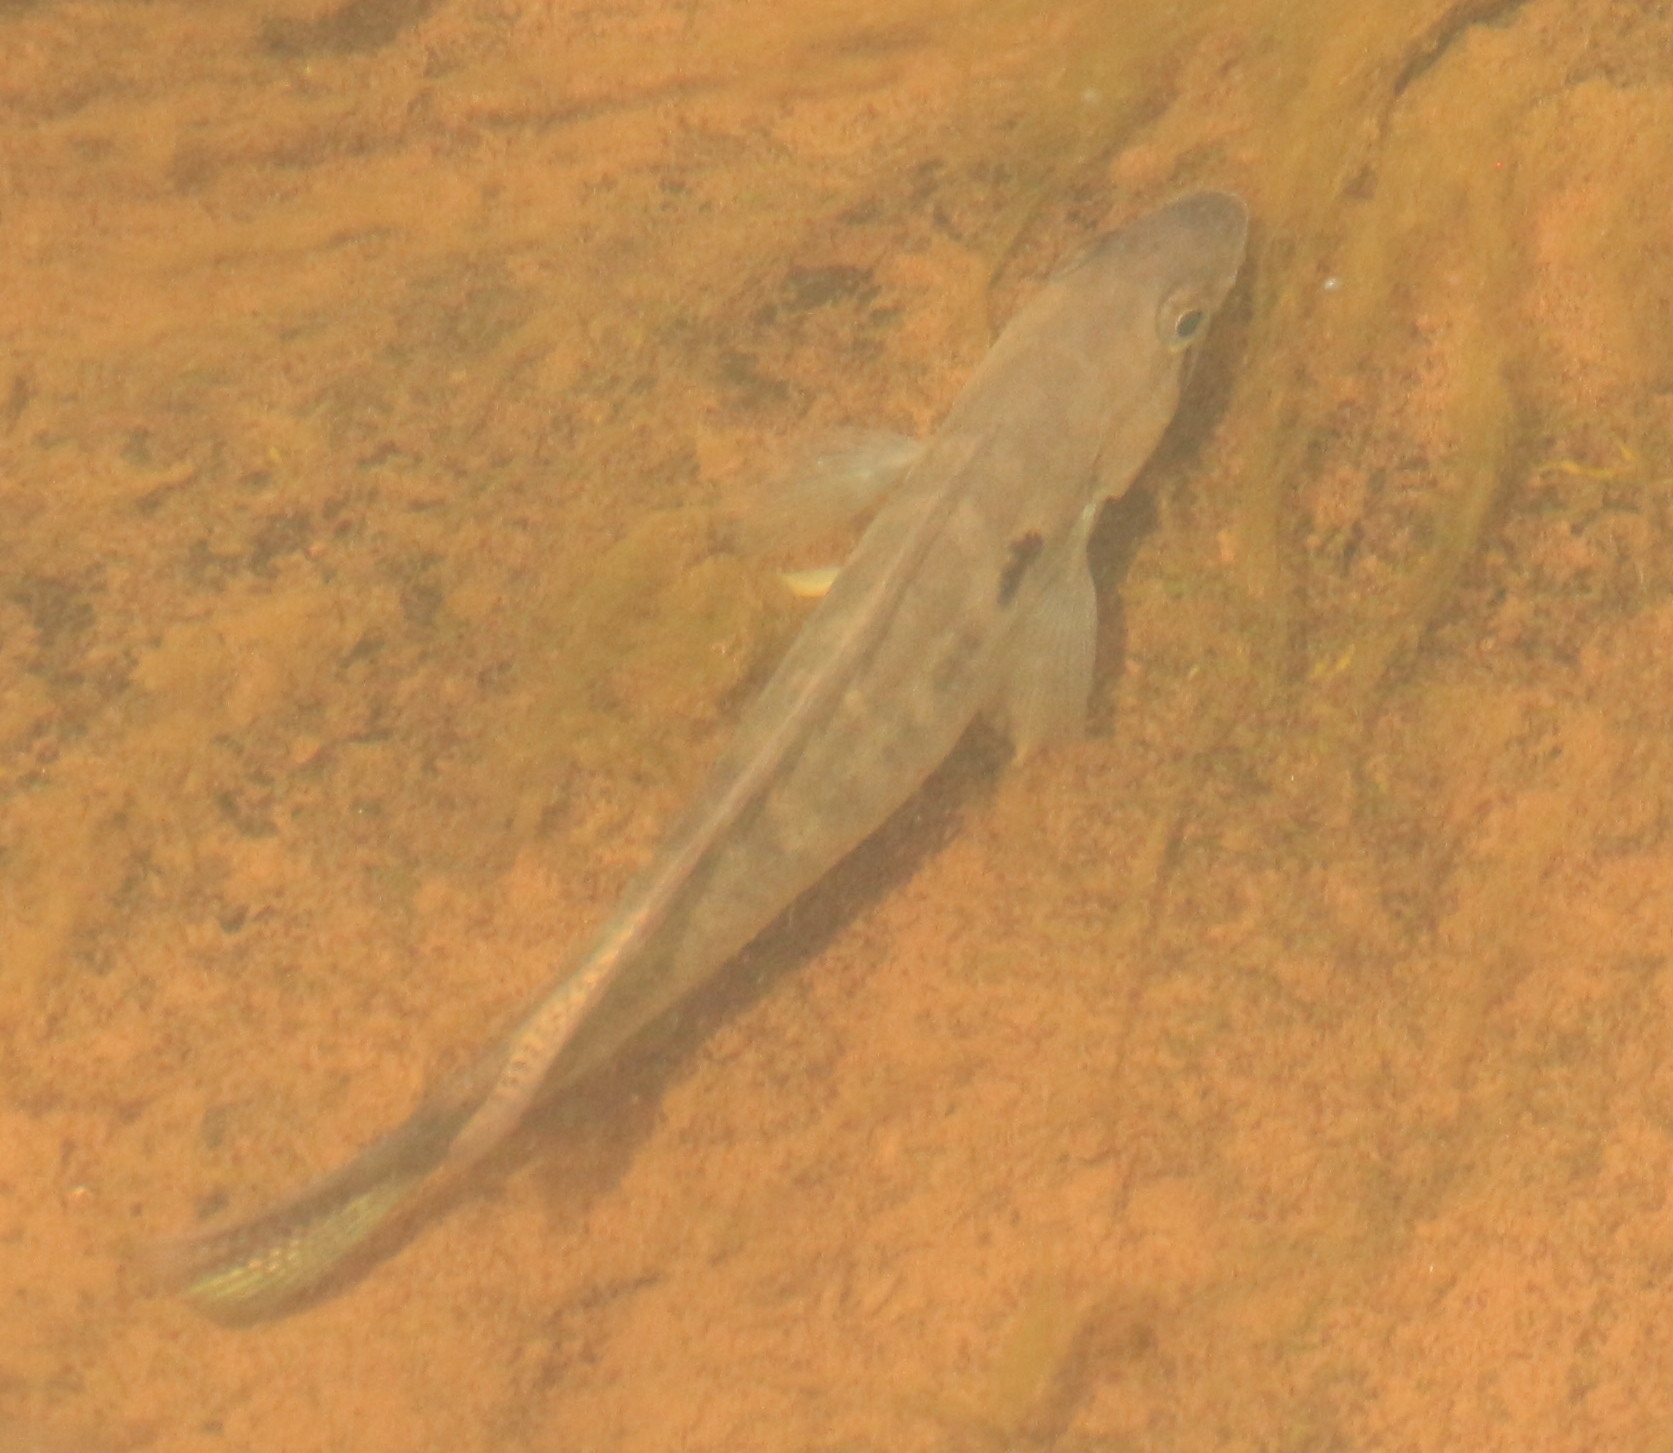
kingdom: Animalia
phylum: Chordata
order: Perciformes
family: Cichlidae
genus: Crenicichla
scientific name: Crenicichla tapii
